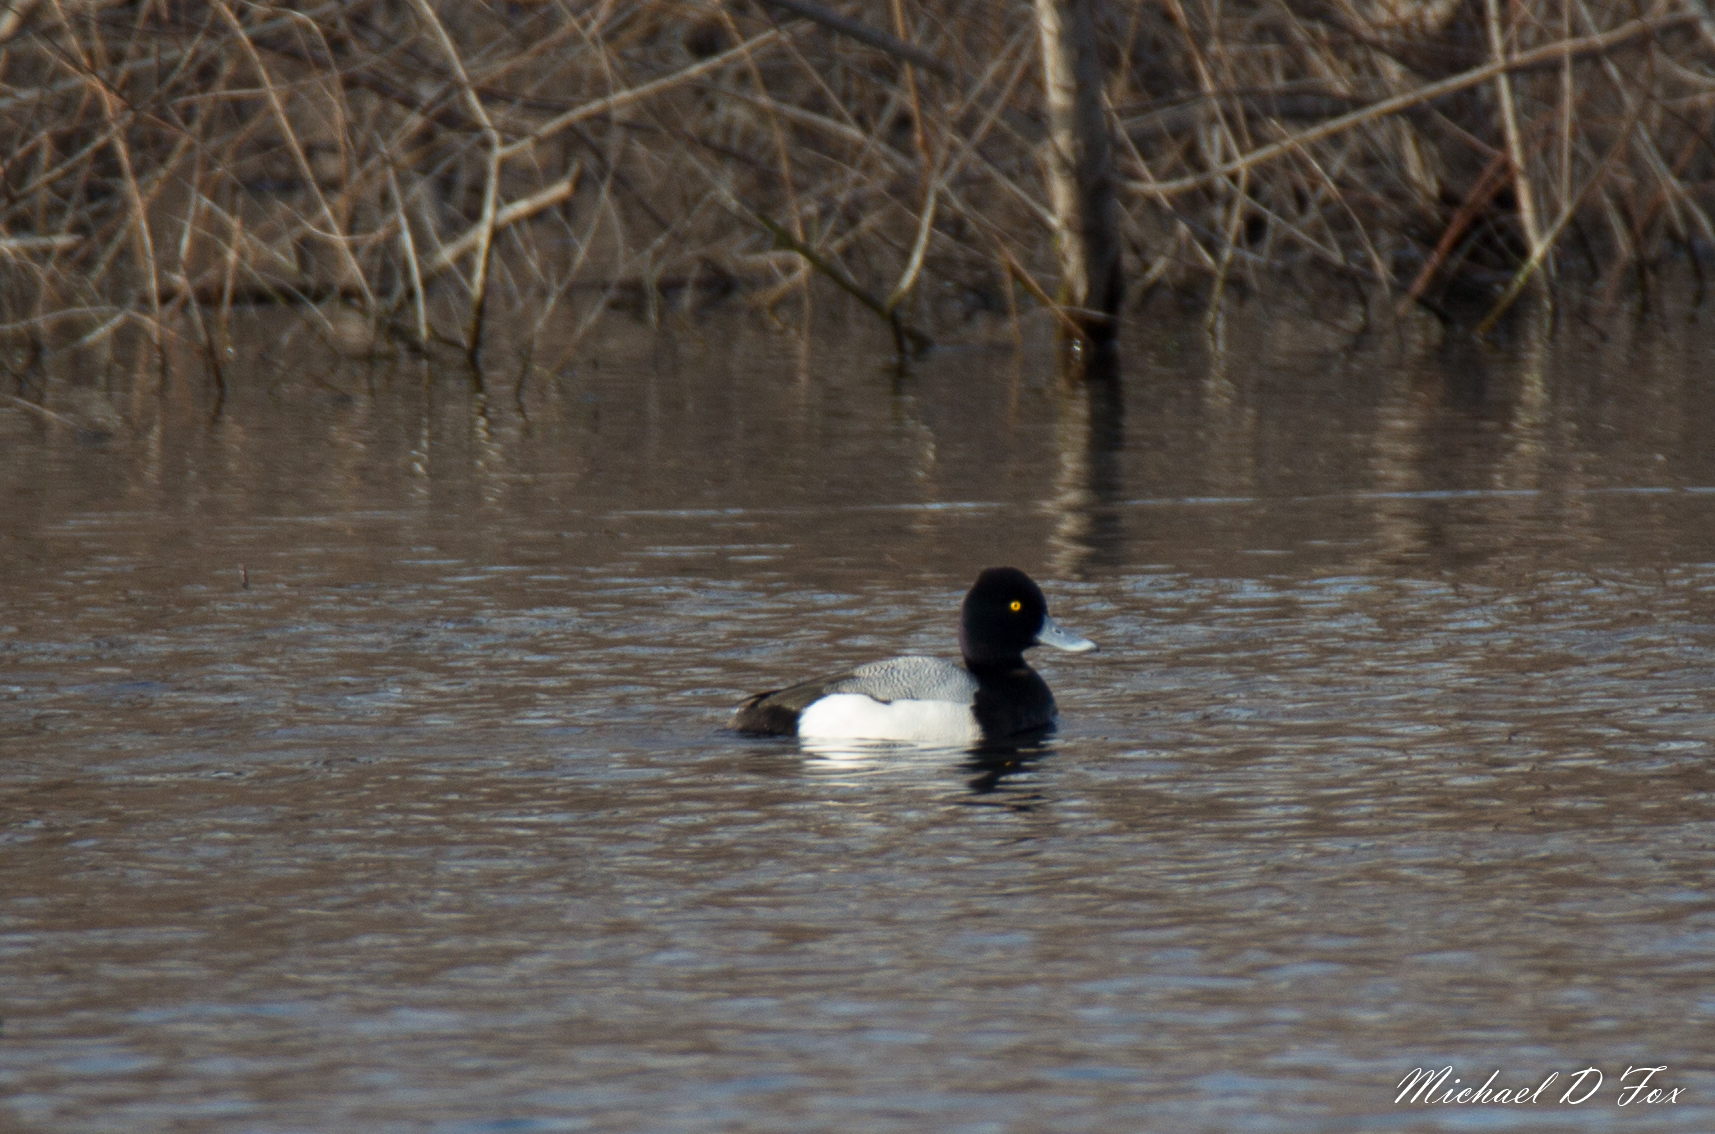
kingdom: Animalia
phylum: Chordata
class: Aves
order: Anseriformes
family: Anatidae
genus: Aythya
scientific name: Aythya affinis
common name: Lesser scaup
